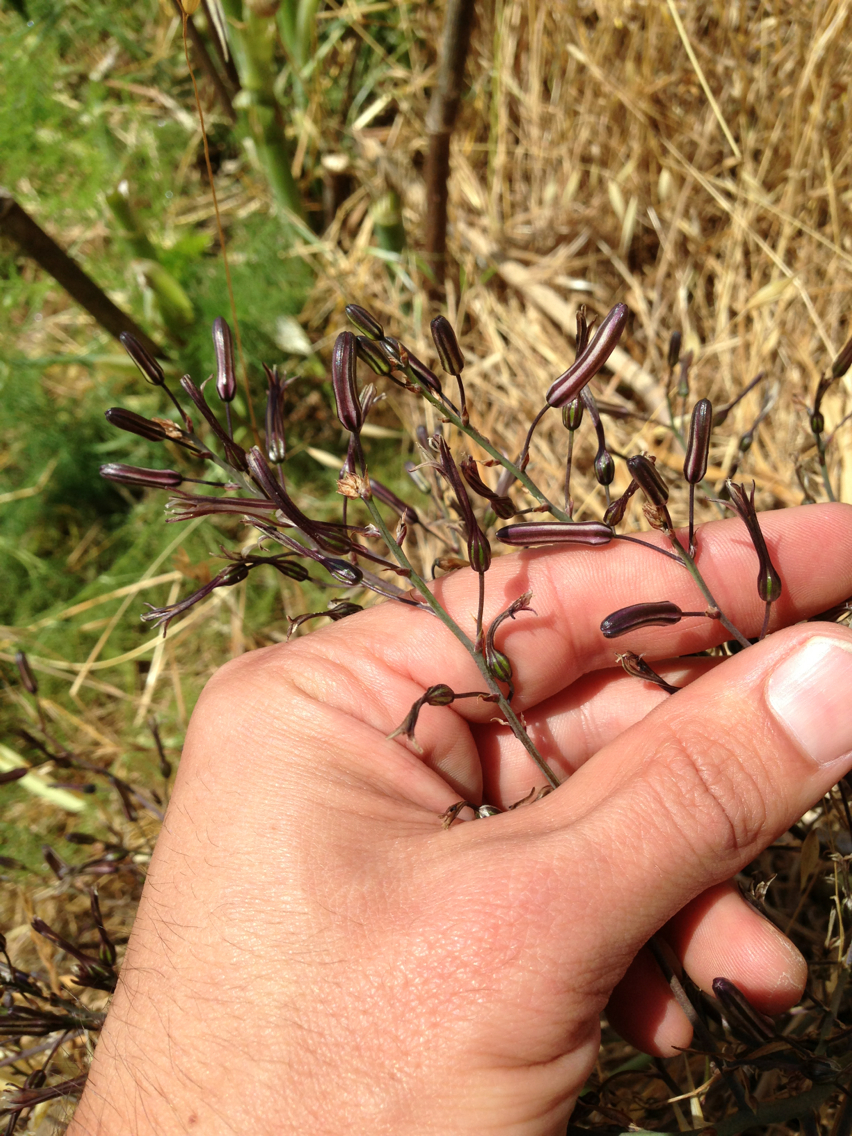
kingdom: Plantae
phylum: Tracheophyta
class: Liliopsida
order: Asparagales
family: Asparagaceae
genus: Chlorogalum
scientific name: Chlorogalum pomeridianum
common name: Amole
